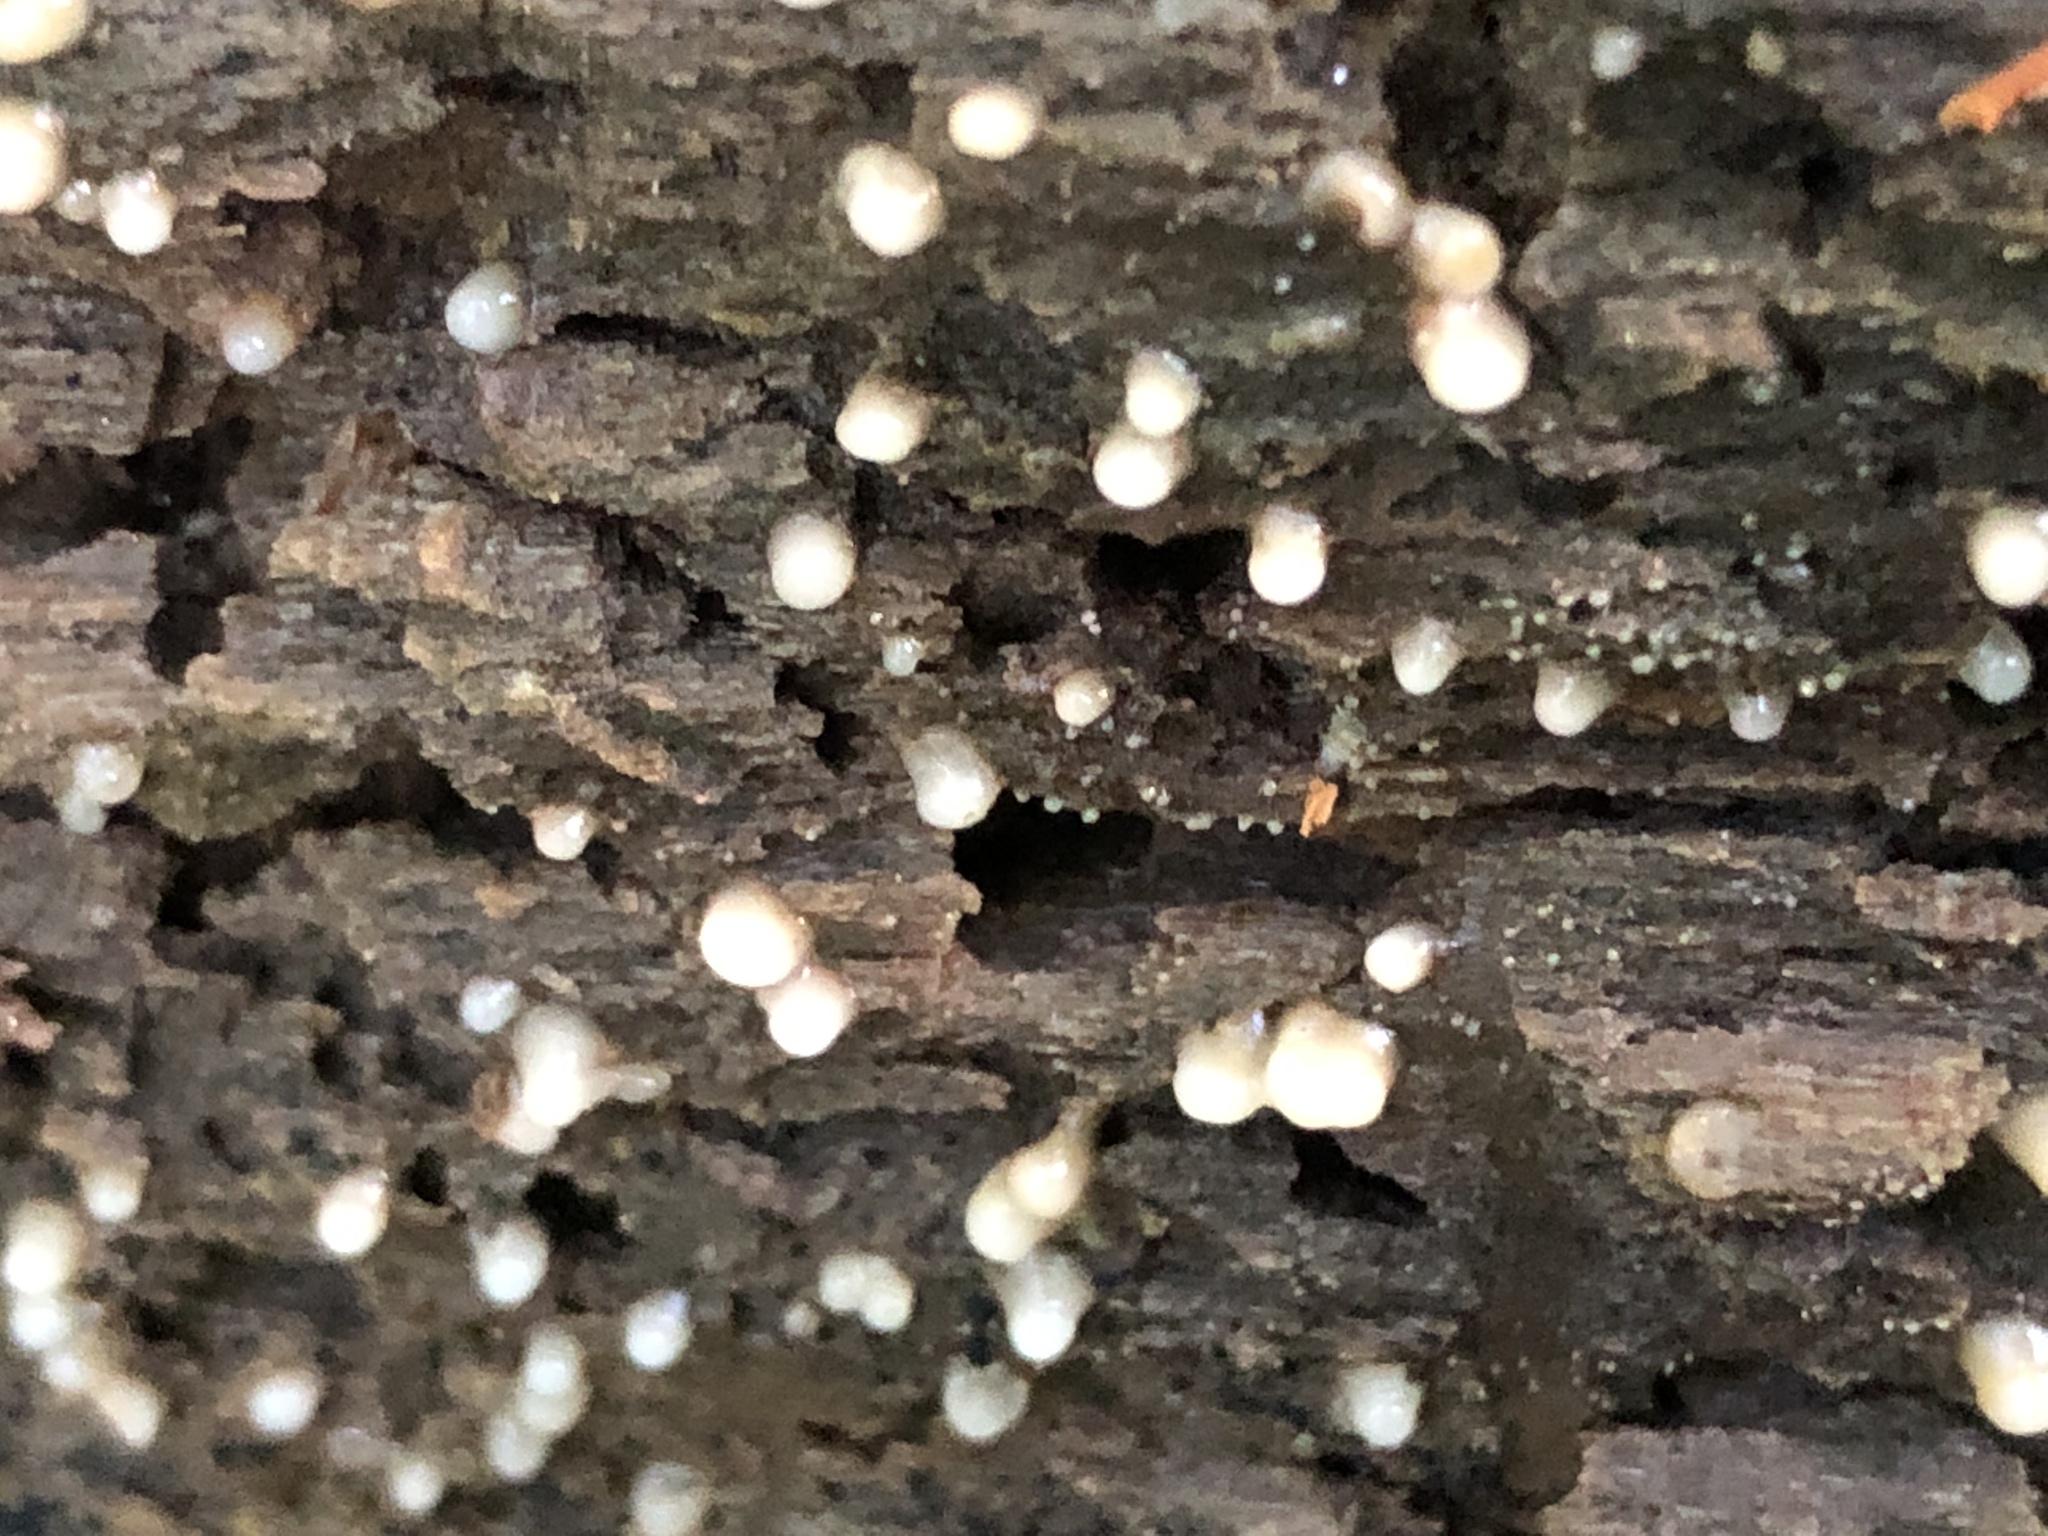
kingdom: Fungi
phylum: Basidiomycota
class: Atractiellomycetes
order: Atractiellales
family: Phleogenaceae
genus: Helicogloea
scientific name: Helicogloea compressa
